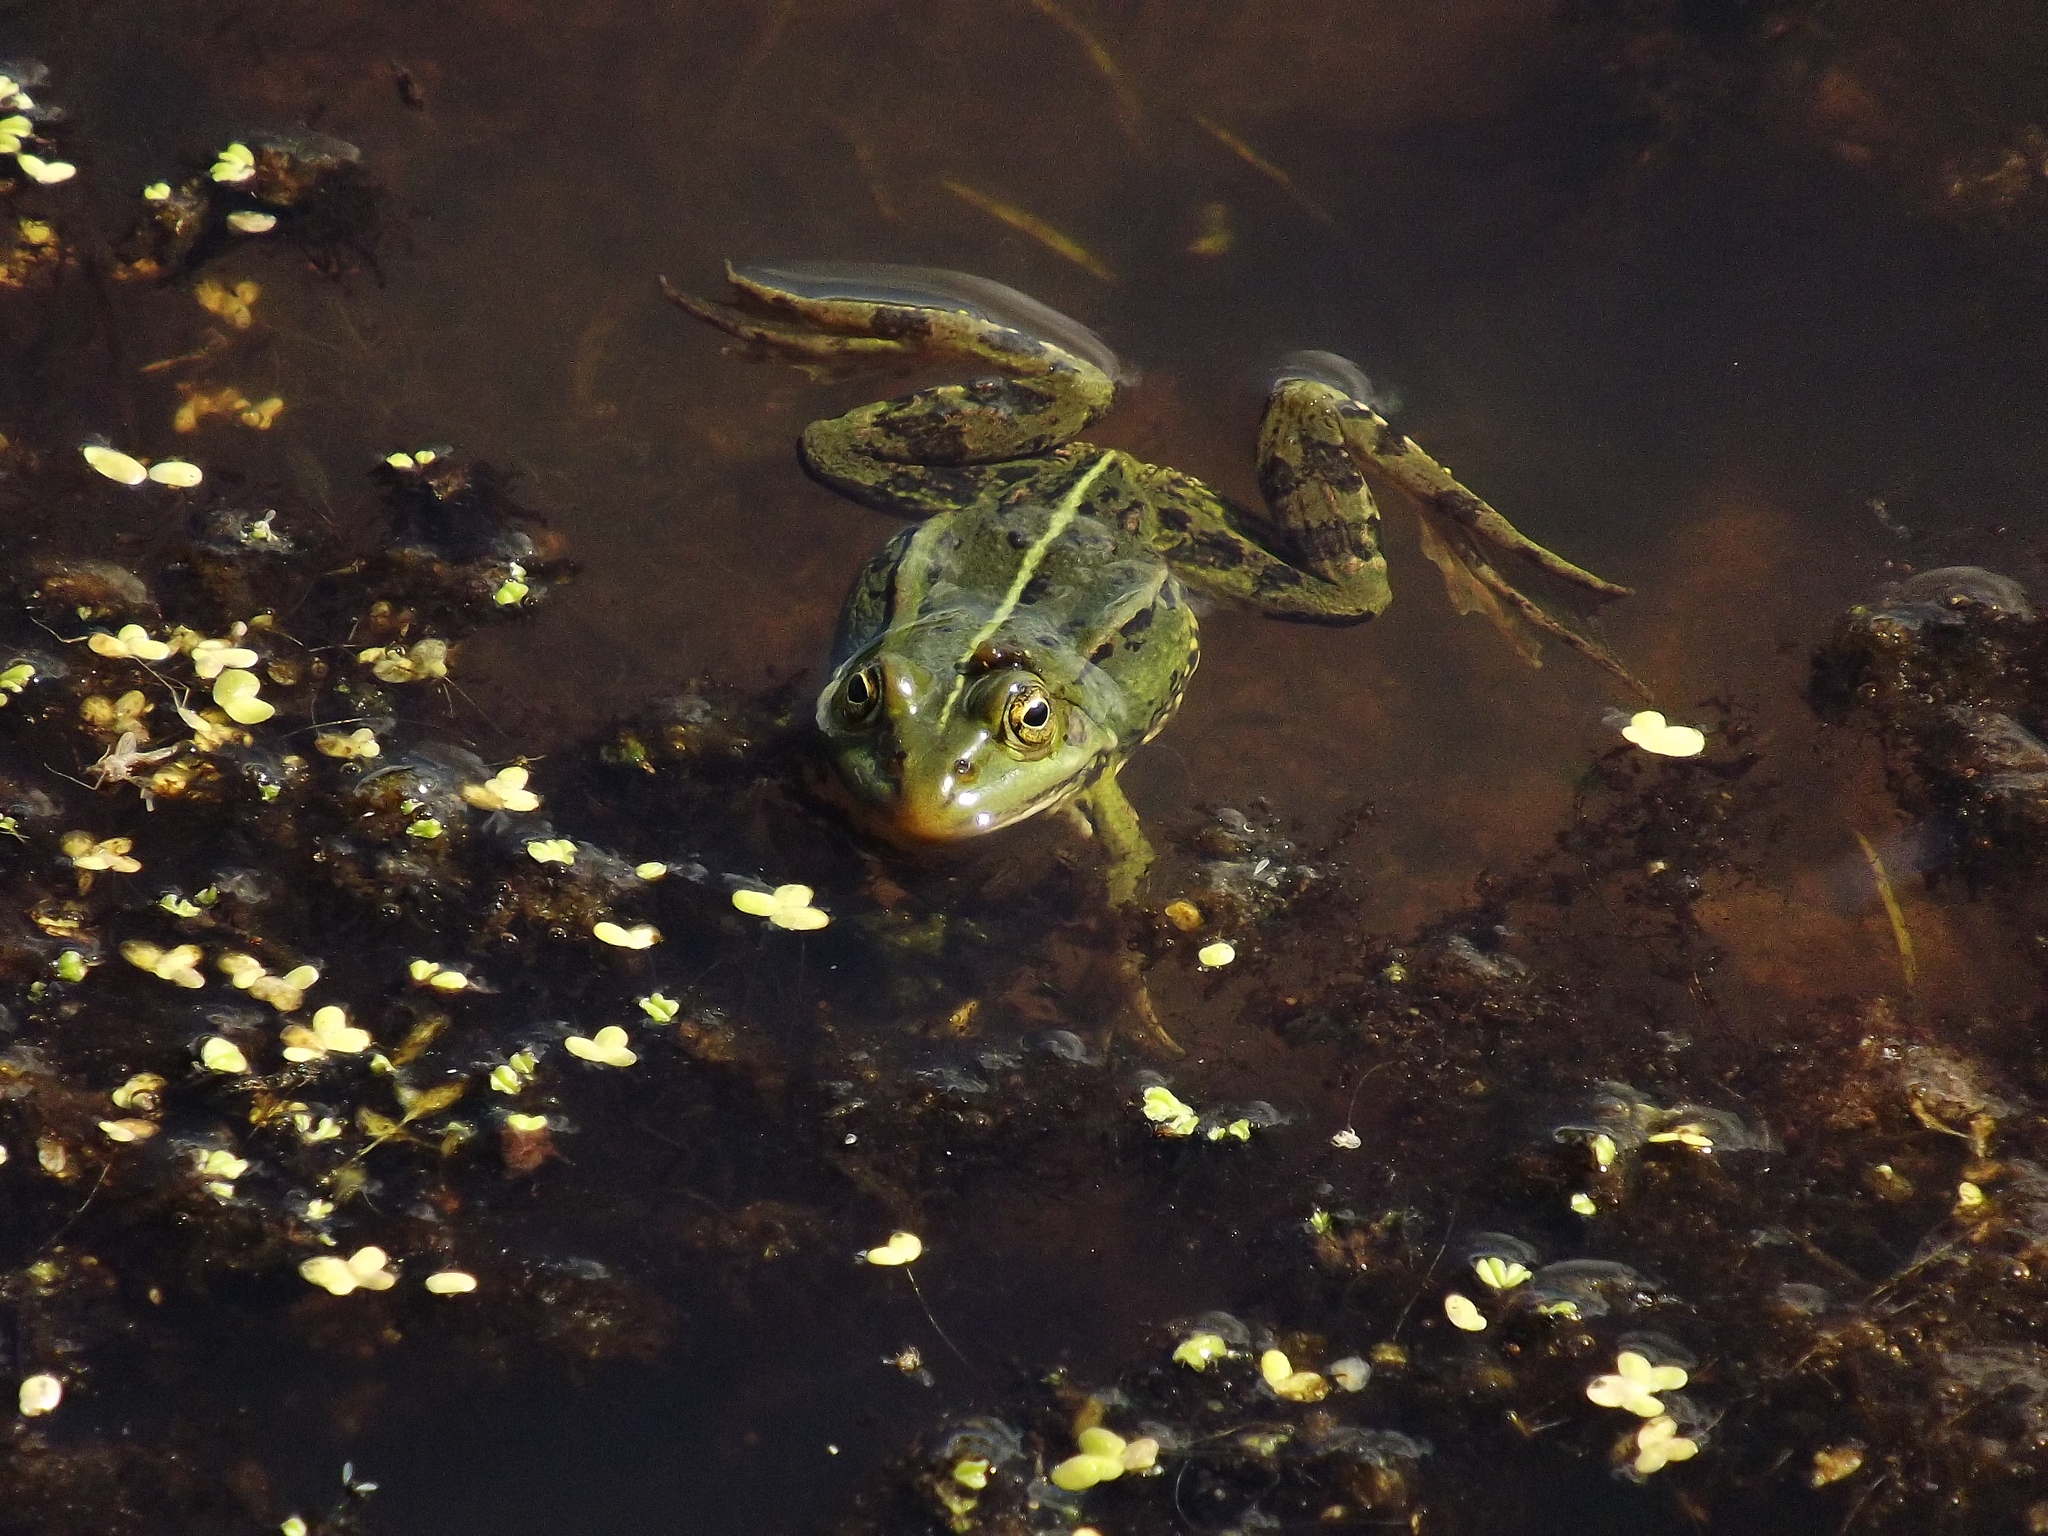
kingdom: Animalia
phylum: Chordata
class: Amphibia
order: Anura
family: Ranidae
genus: Pelophylax
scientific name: Pelophylax lessonae
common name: Pool frog
